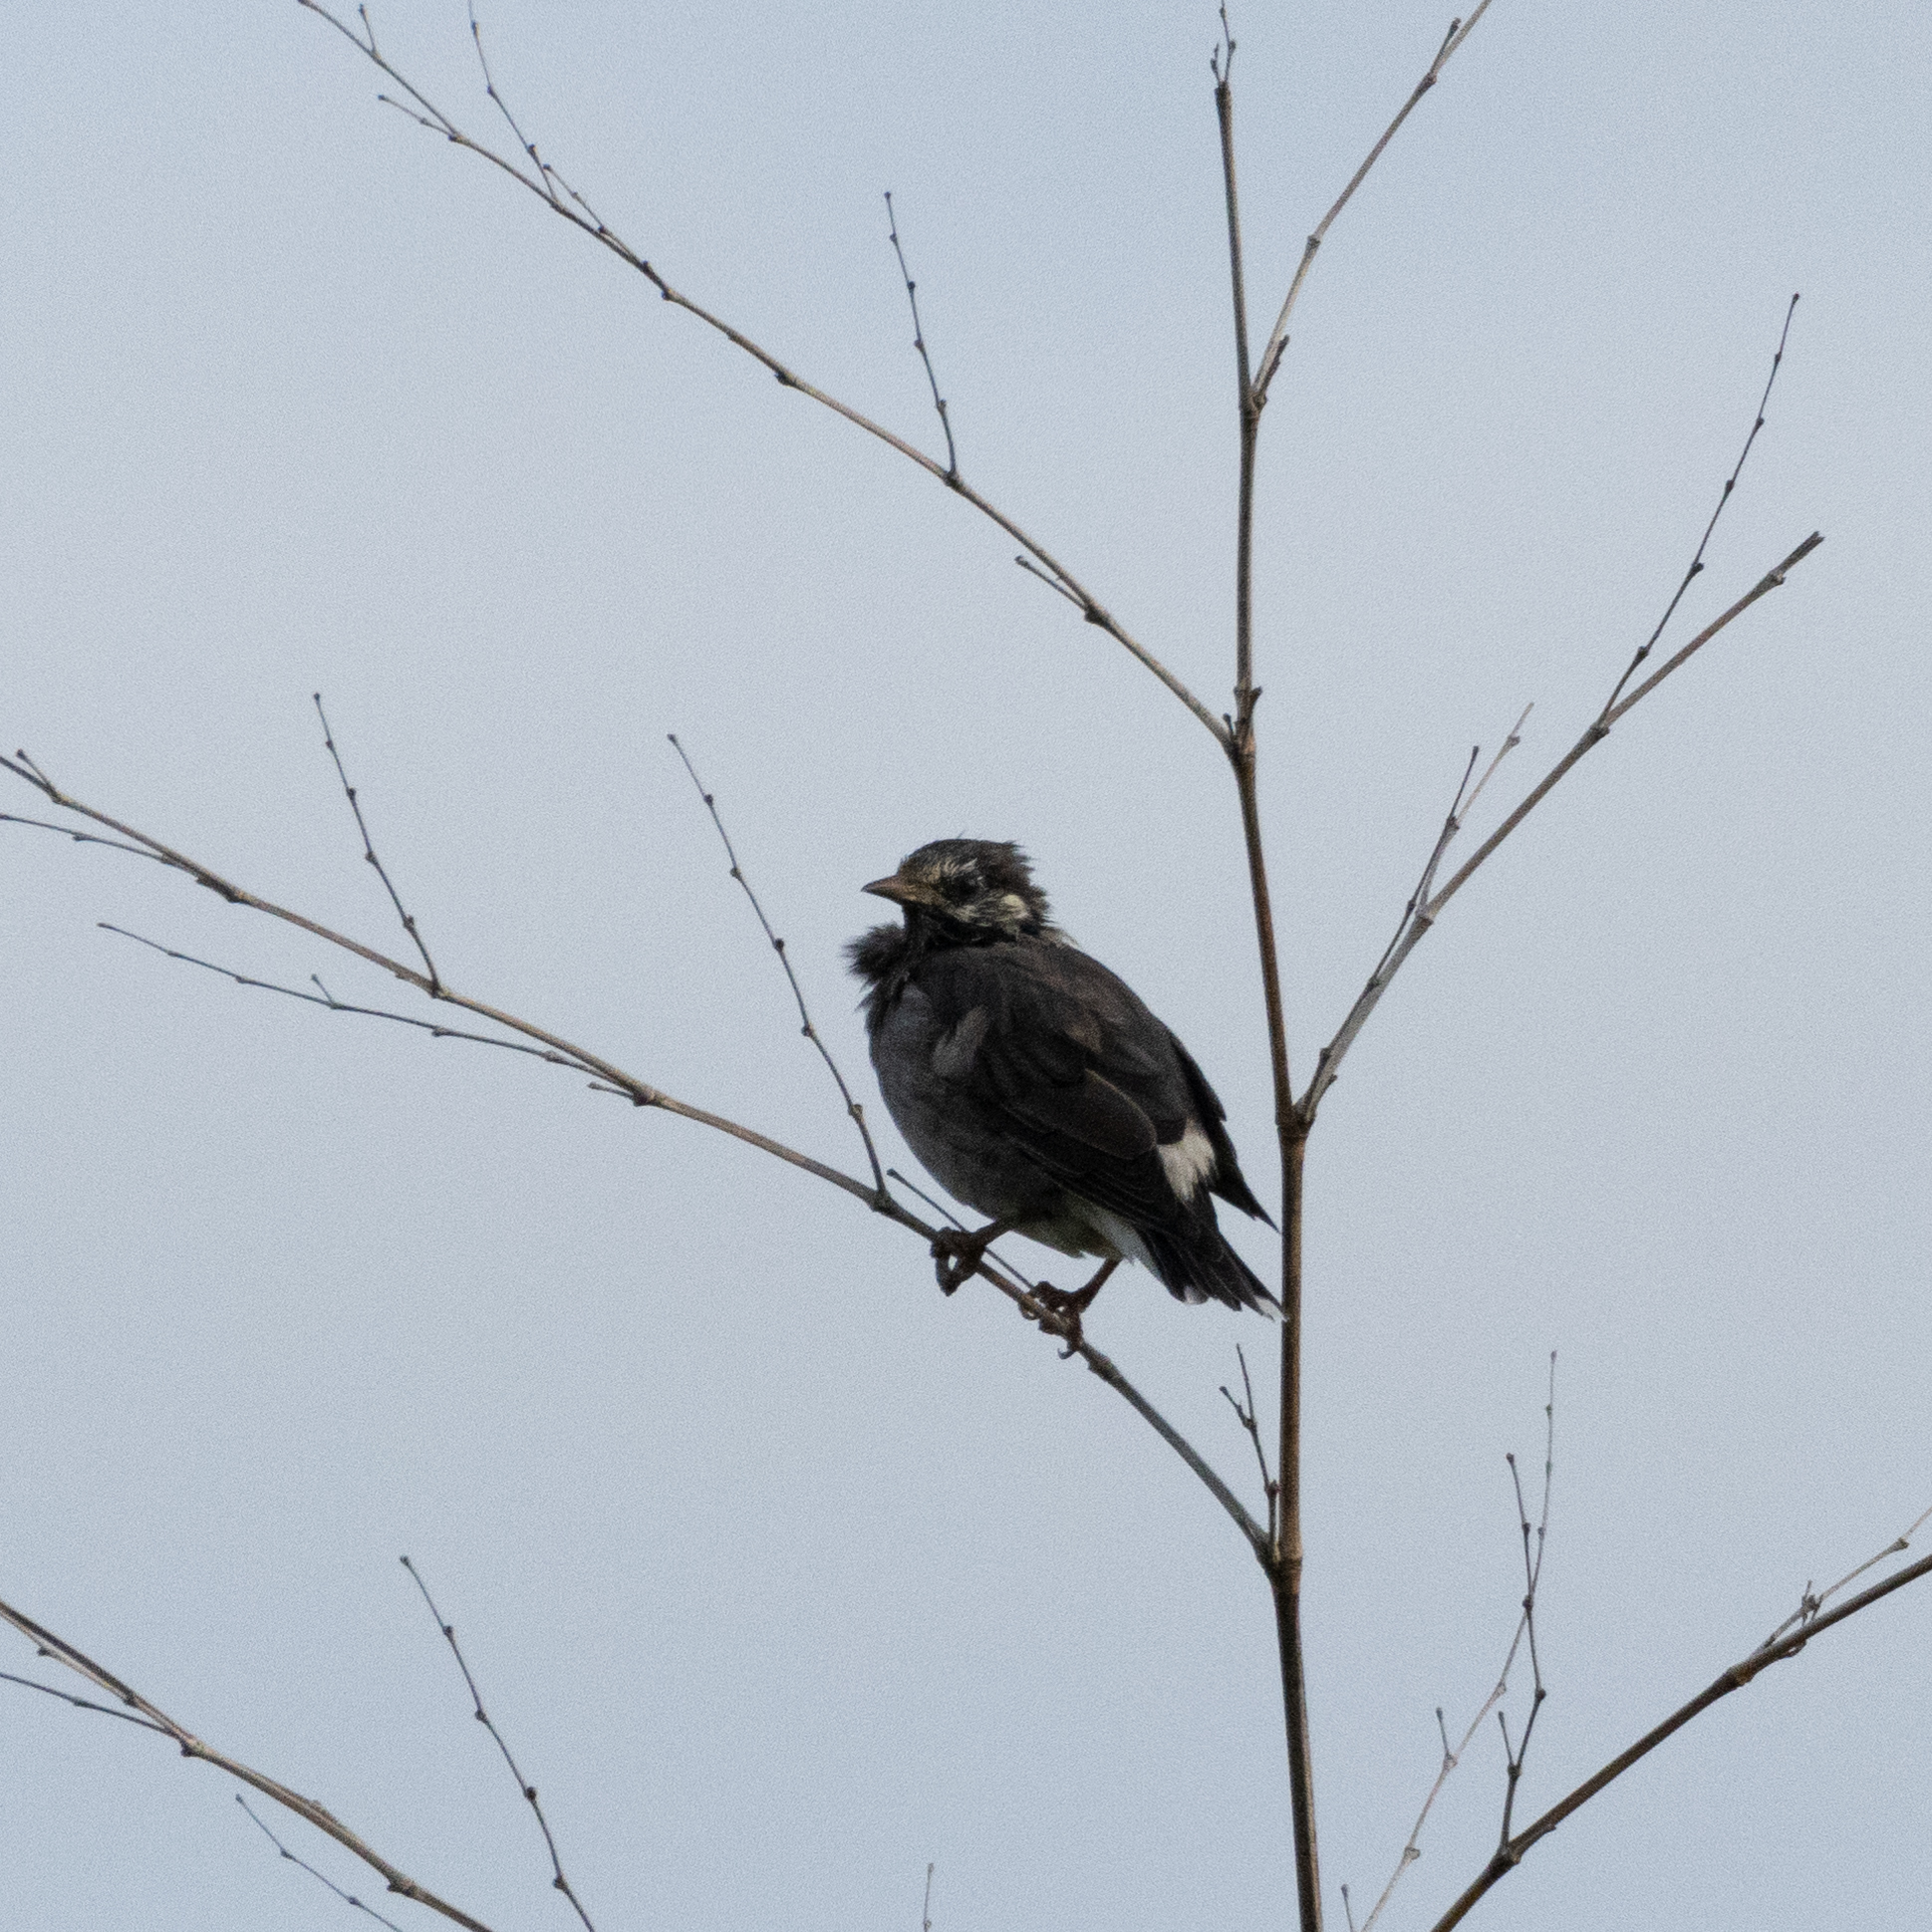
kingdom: Animalia
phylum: Chordata
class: Aves
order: Passeriformes
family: Sturnidae
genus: Spodiopsar
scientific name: Spodiopsar cineraceus
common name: White-cheeked starling
